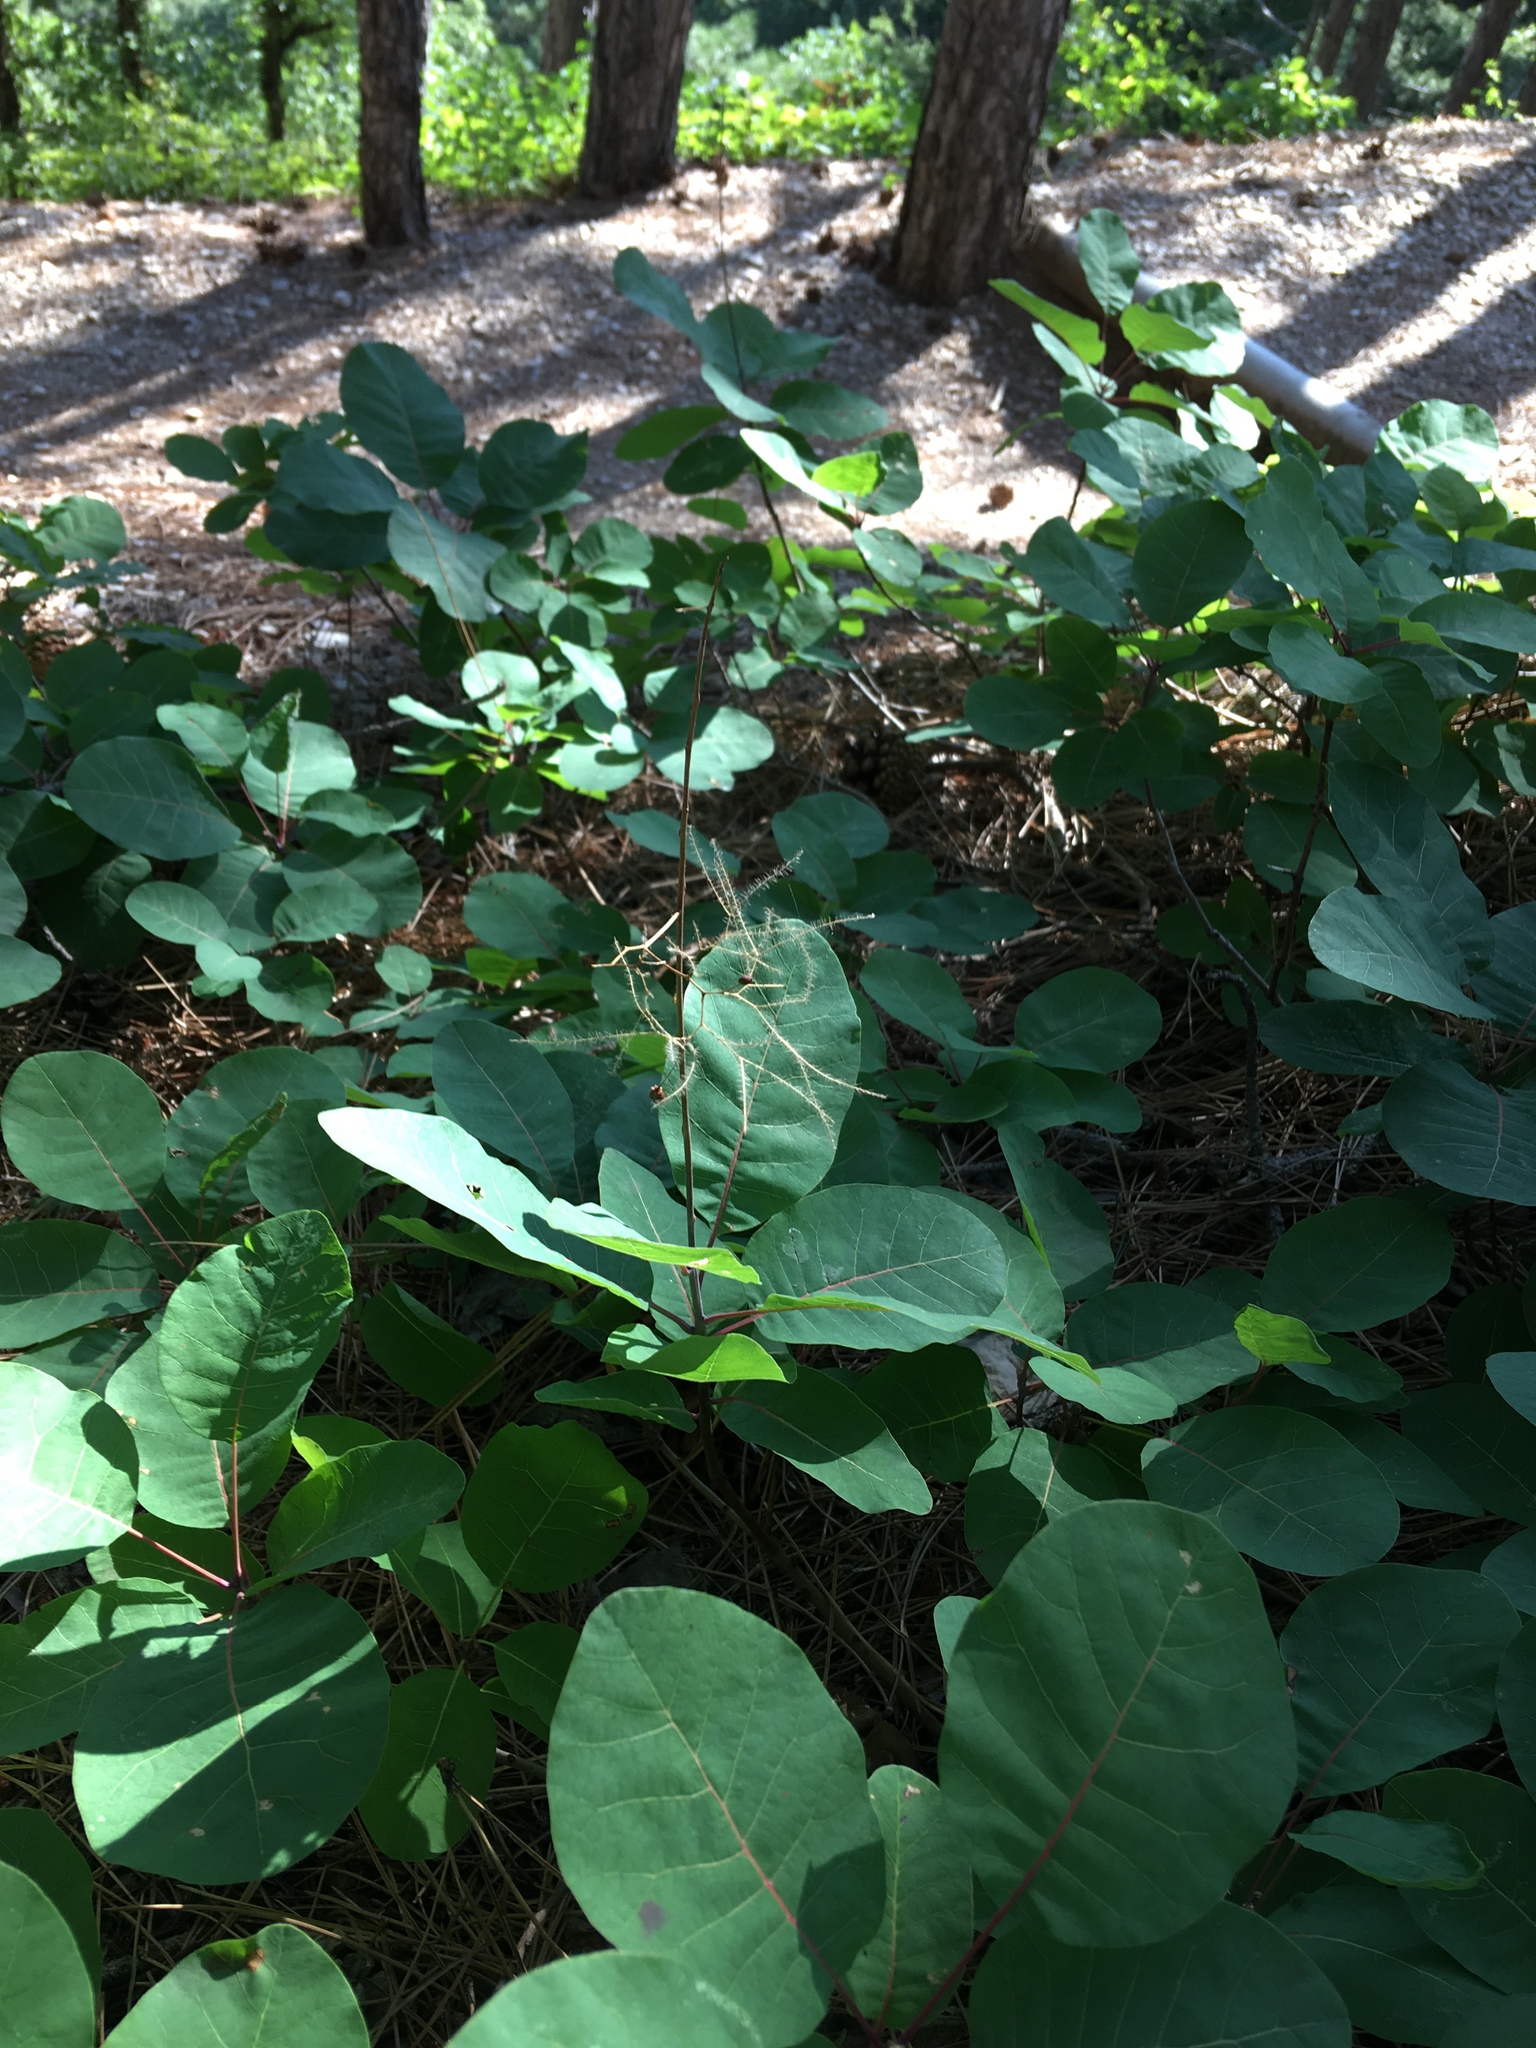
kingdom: Plantae
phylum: Tracheophyta
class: Magnoliopsida
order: Sapindales
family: Anacardiaceae
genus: Cotinus
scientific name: Cotinus coggygria
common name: Smoke-tree
